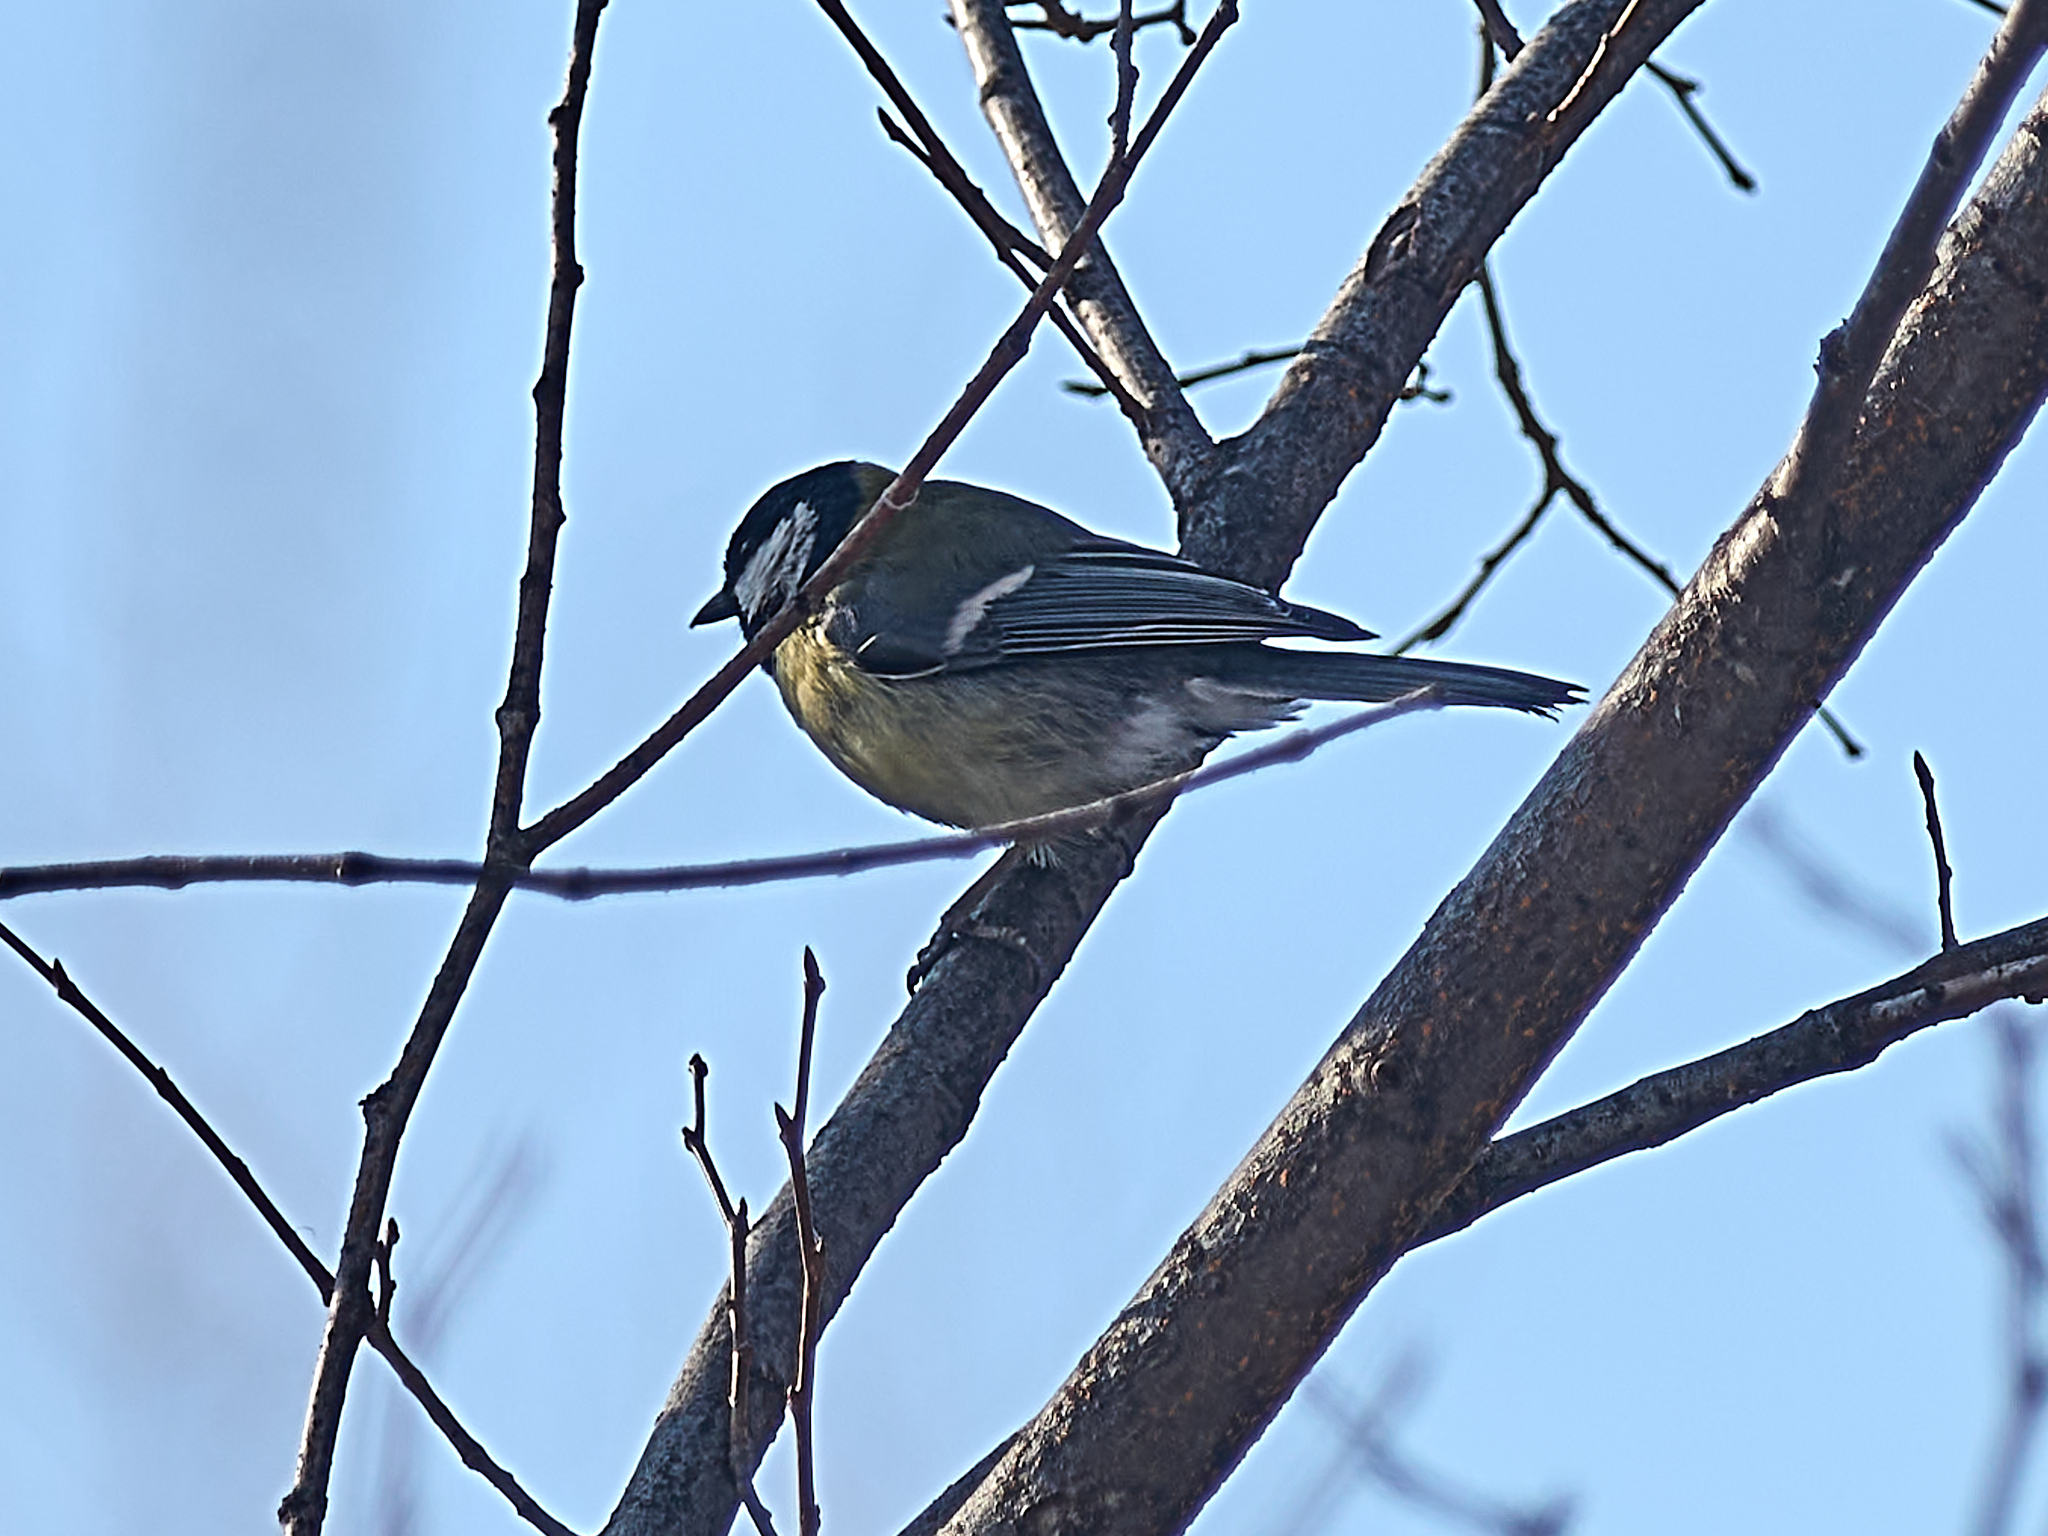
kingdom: Animalia
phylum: Chordata
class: Aves
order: Passeriformes
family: Paridae
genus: Parus
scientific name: Parus major
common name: Great tit
